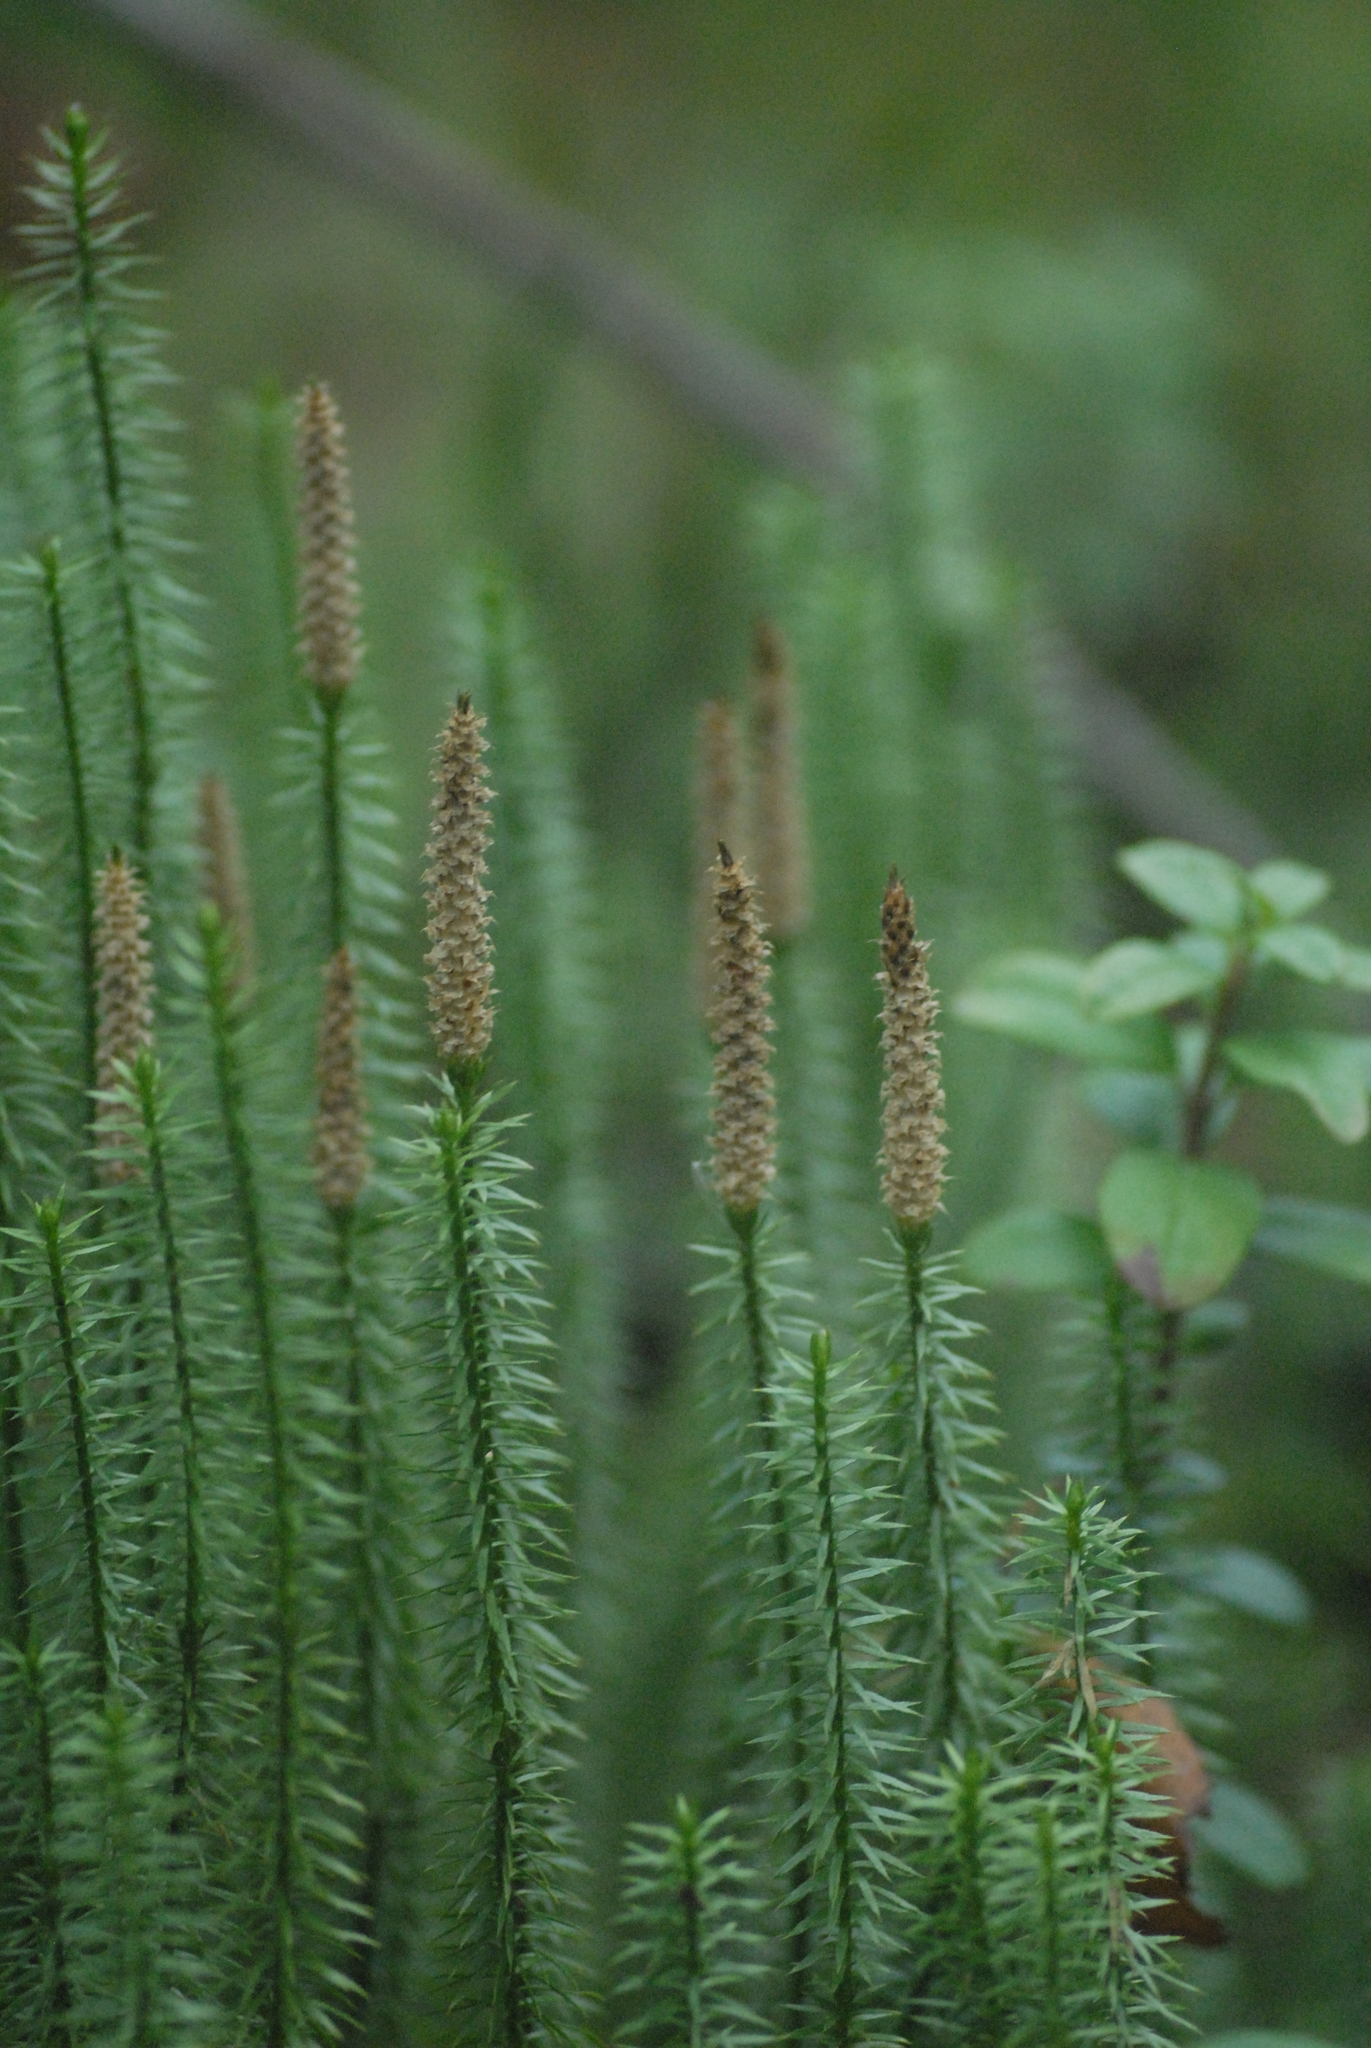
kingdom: Plantae
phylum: Tracheophyta
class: Lycopodiopsida
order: Lycopodiales
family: Lycopodiaceae
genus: Spinulum
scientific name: Spinulum annotinum
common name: Interrupted club-moss
